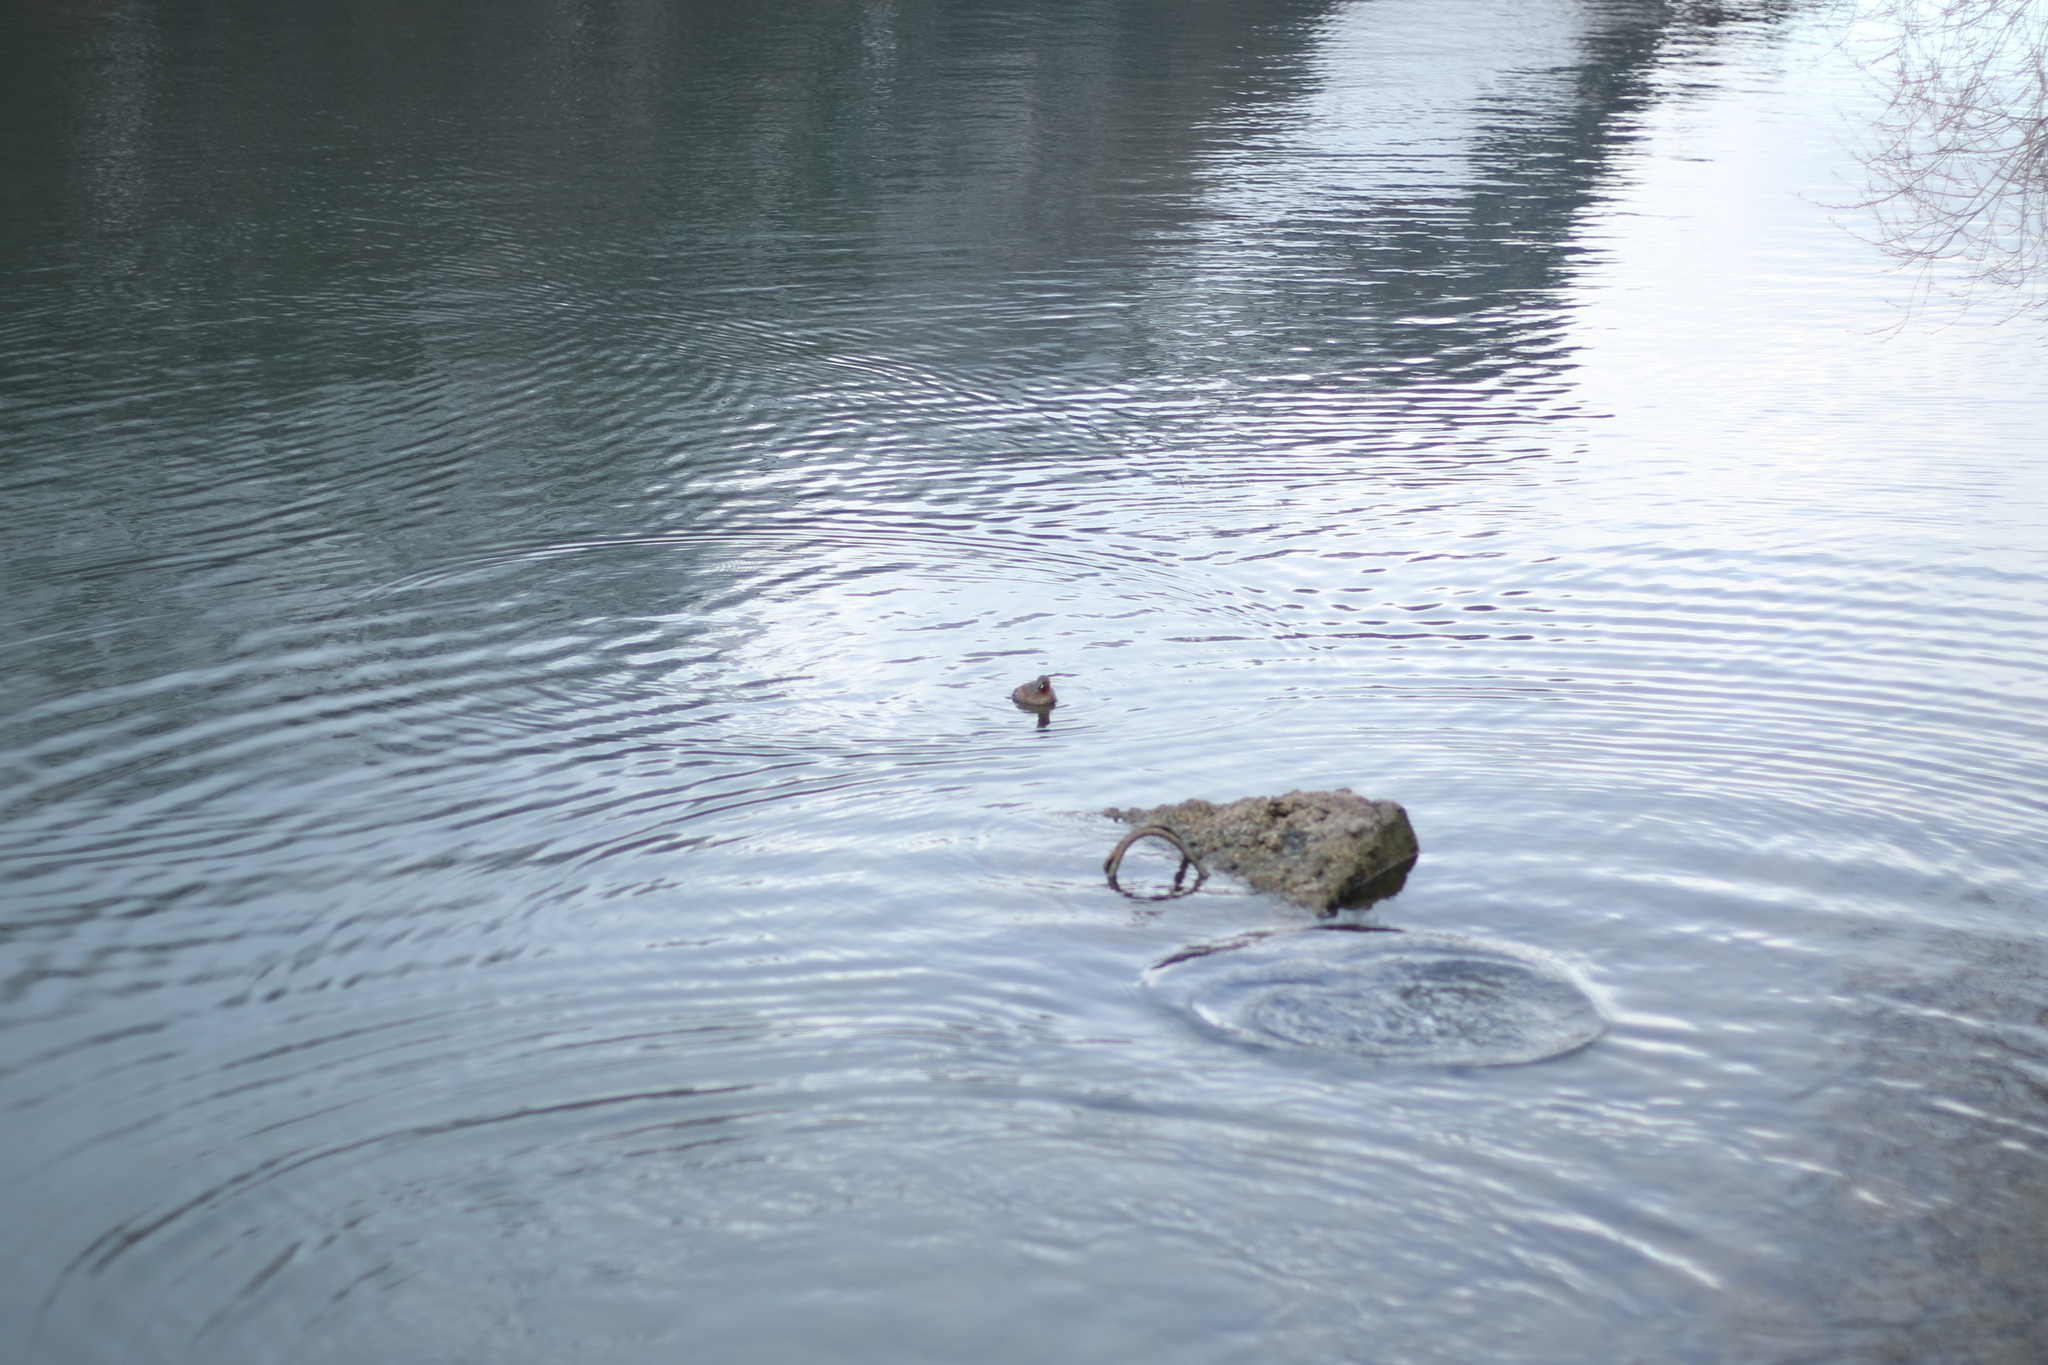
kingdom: Animalia
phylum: Chordata
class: Aves
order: Podicipediformes
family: Podicipedidae
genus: Tachybaptus
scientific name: Tachybaptus ruficollis
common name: Little grebe
